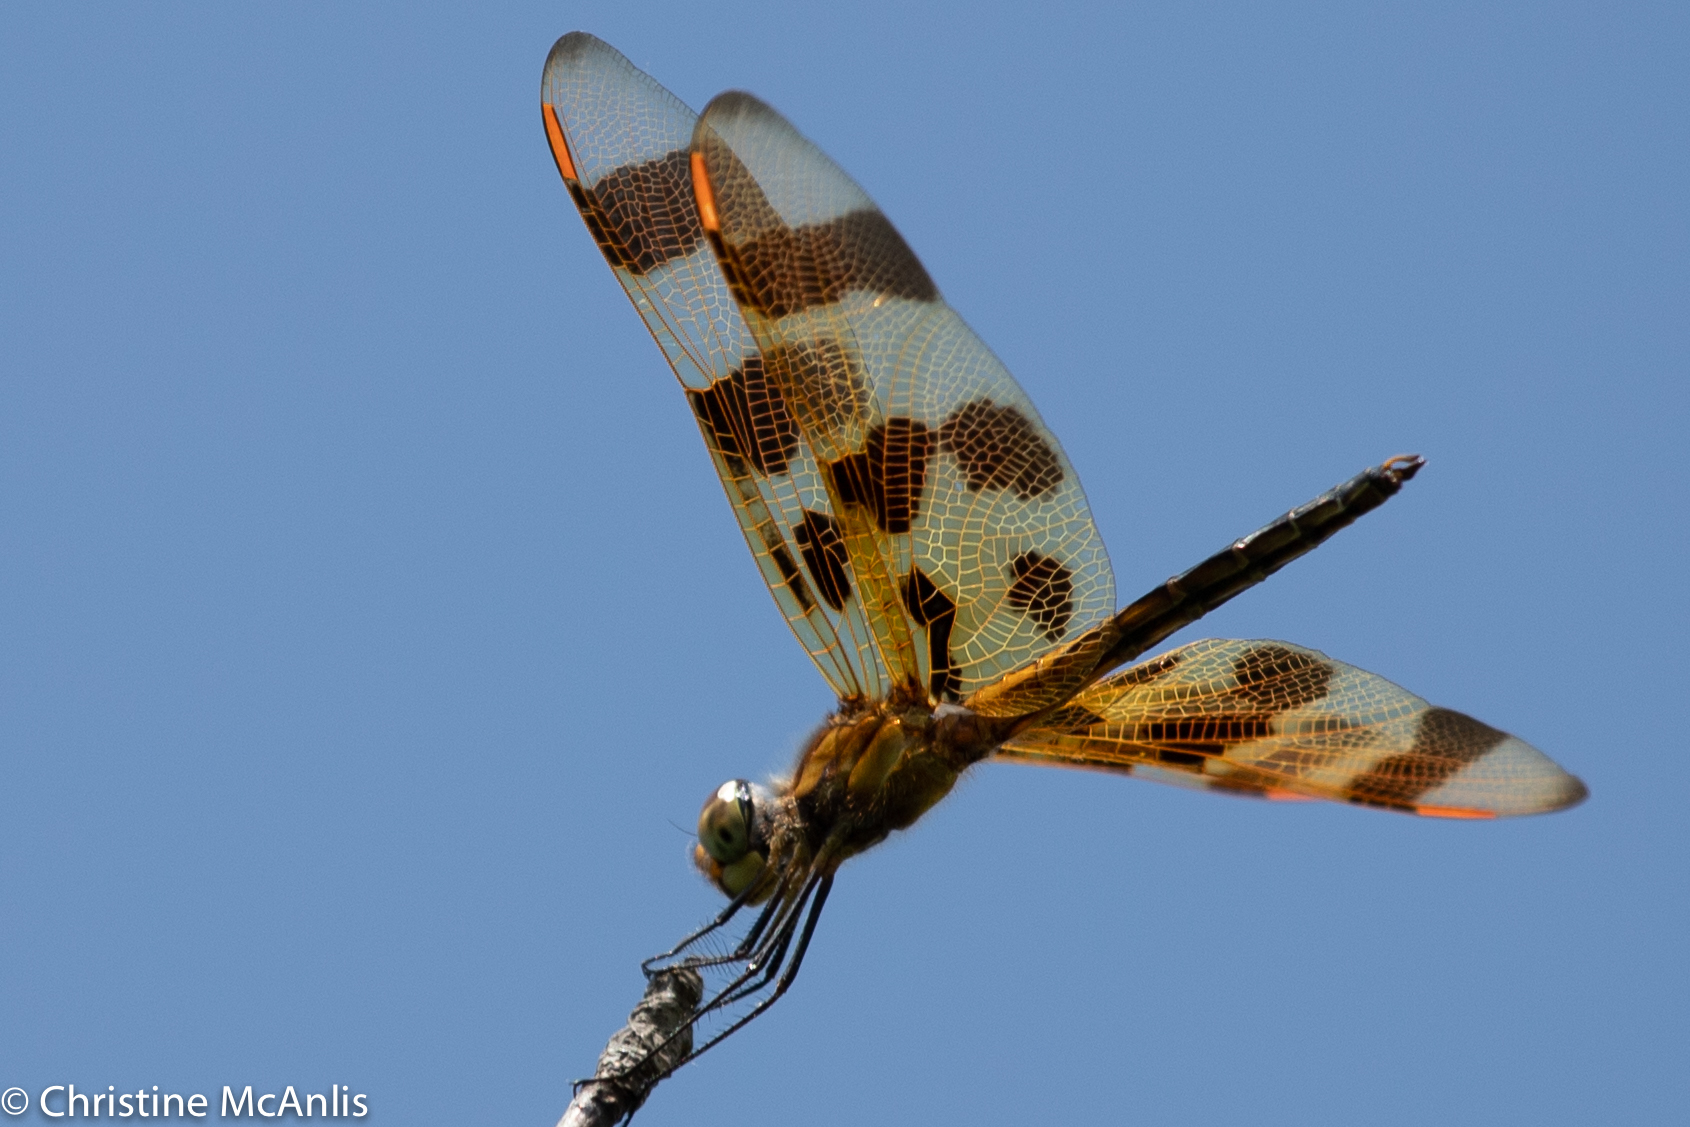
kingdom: Animalia
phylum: Arthropoda
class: Insecta
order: Odonata
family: Libellulidae
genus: Celithemis
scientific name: Celithemis eponina
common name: Halloween pennant
